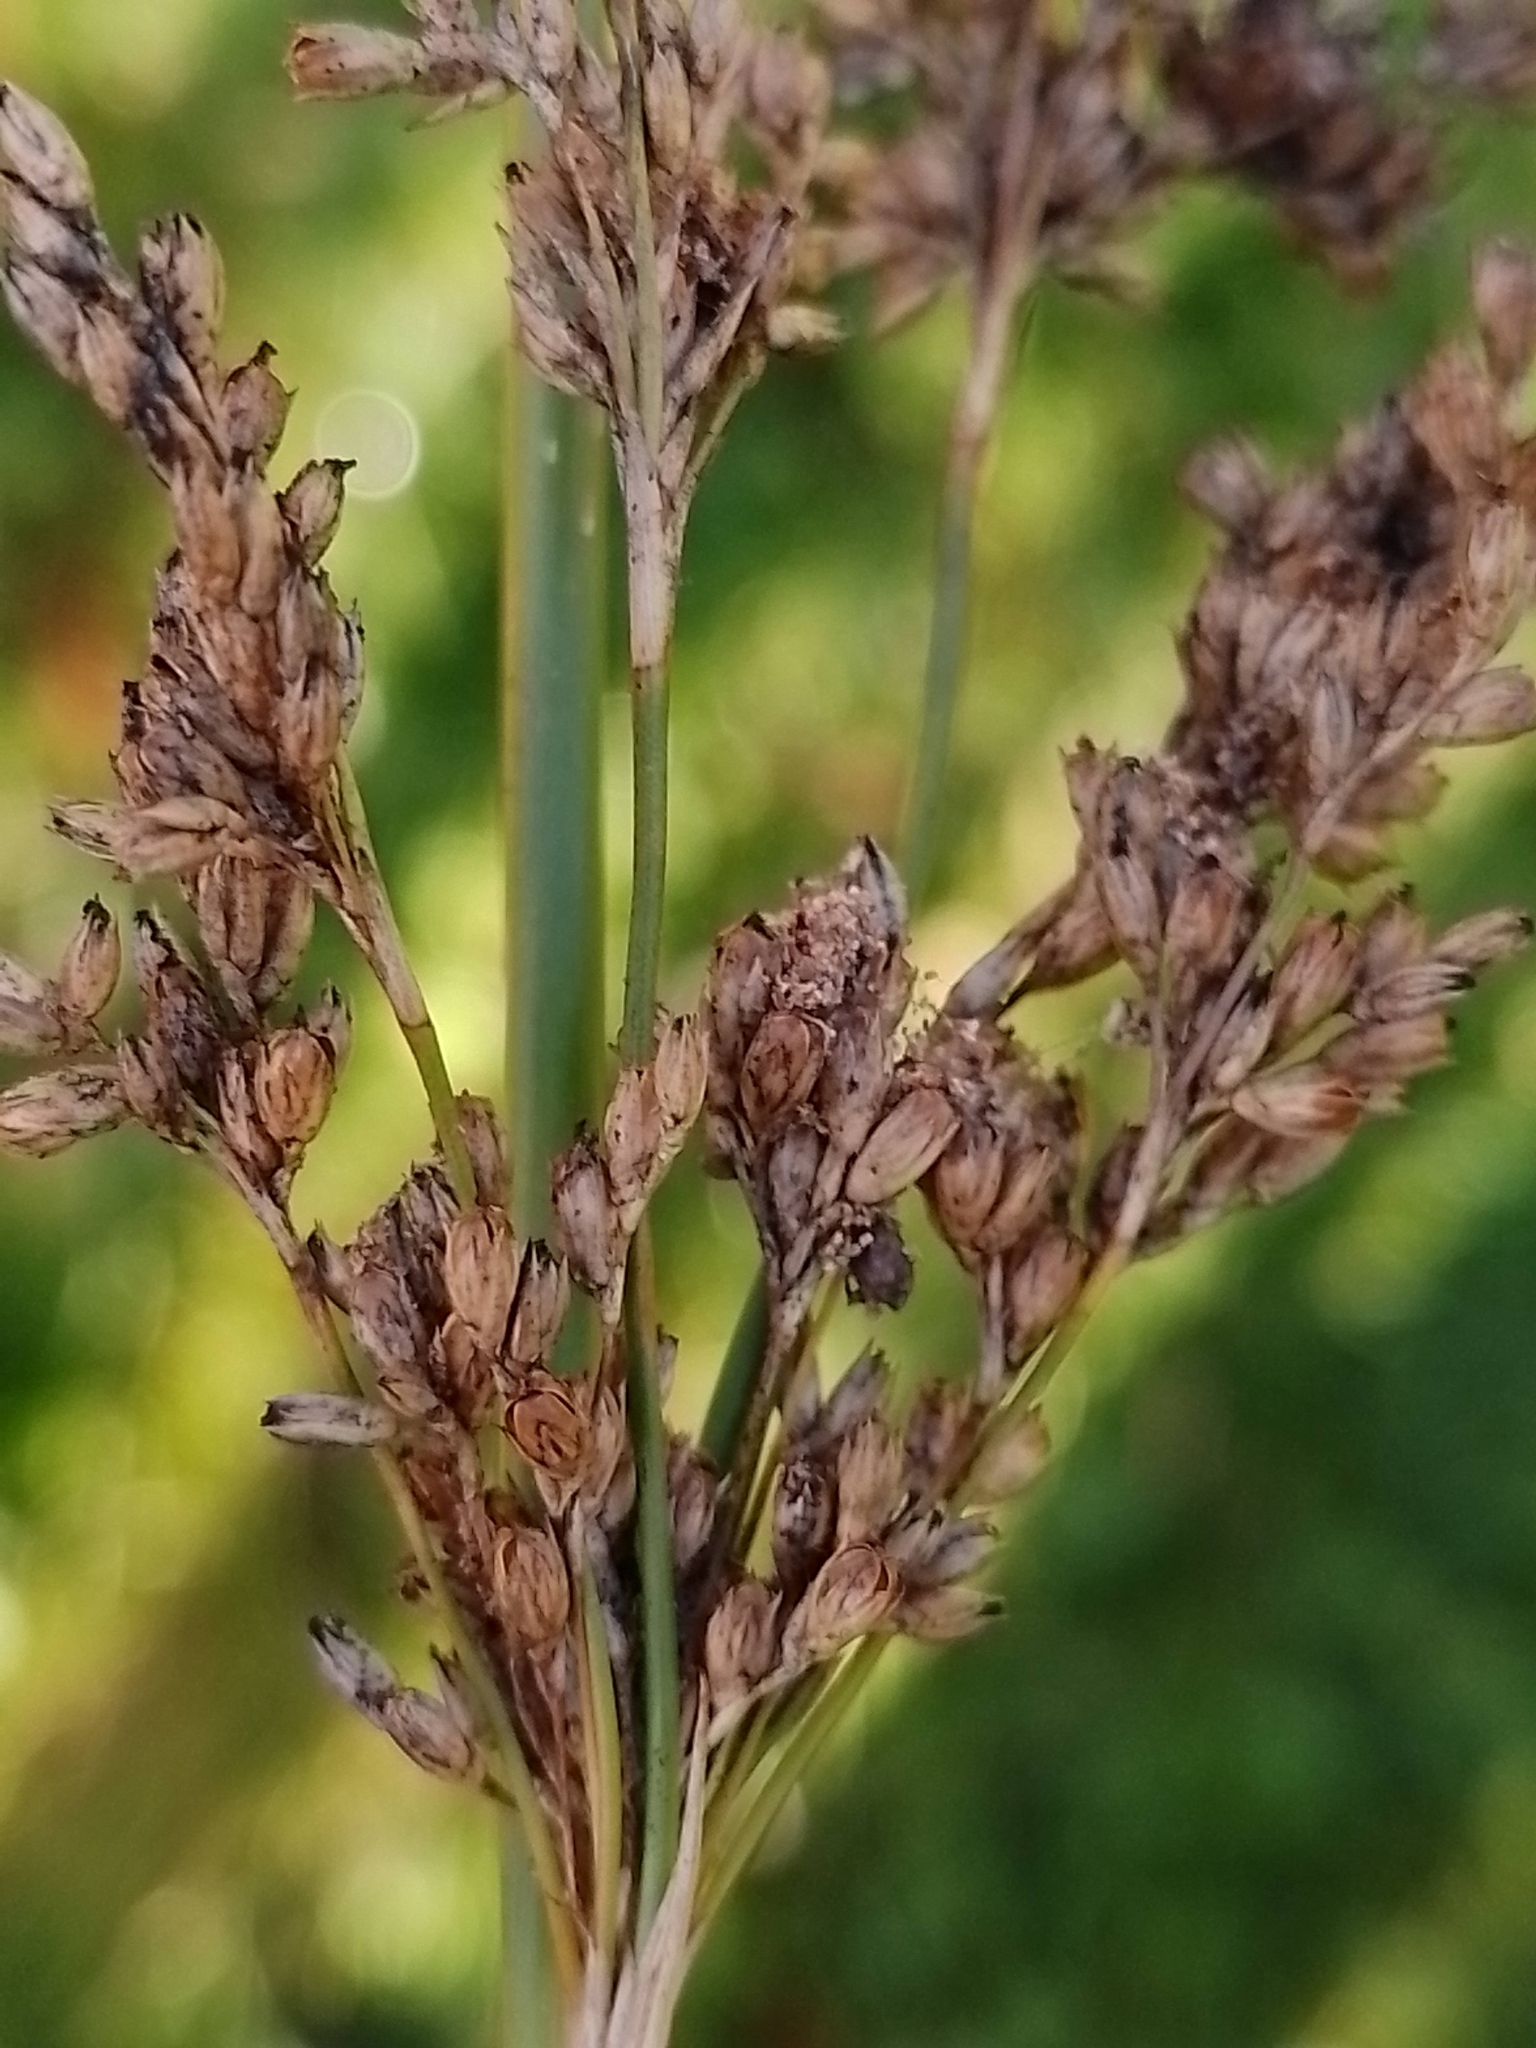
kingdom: Plantae
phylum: Tracheophyta
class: Liliopsida
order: Poales
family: Juncaceae
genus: Juncus
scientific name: Juncus procerus
